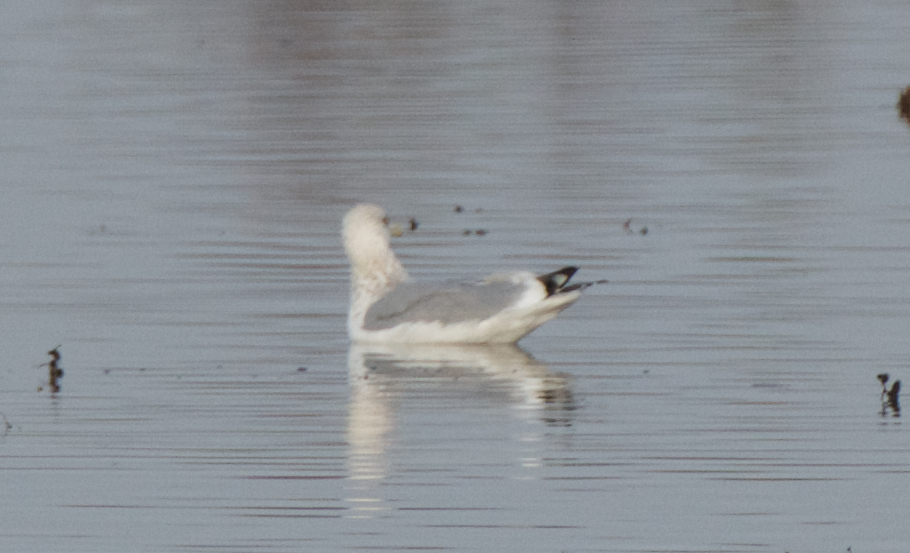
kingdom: Animalia
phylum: Chordata
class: Aves
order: Charadriiformes
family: Laridae
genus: Larus
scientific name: Larus argentatus
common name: Herring gull
